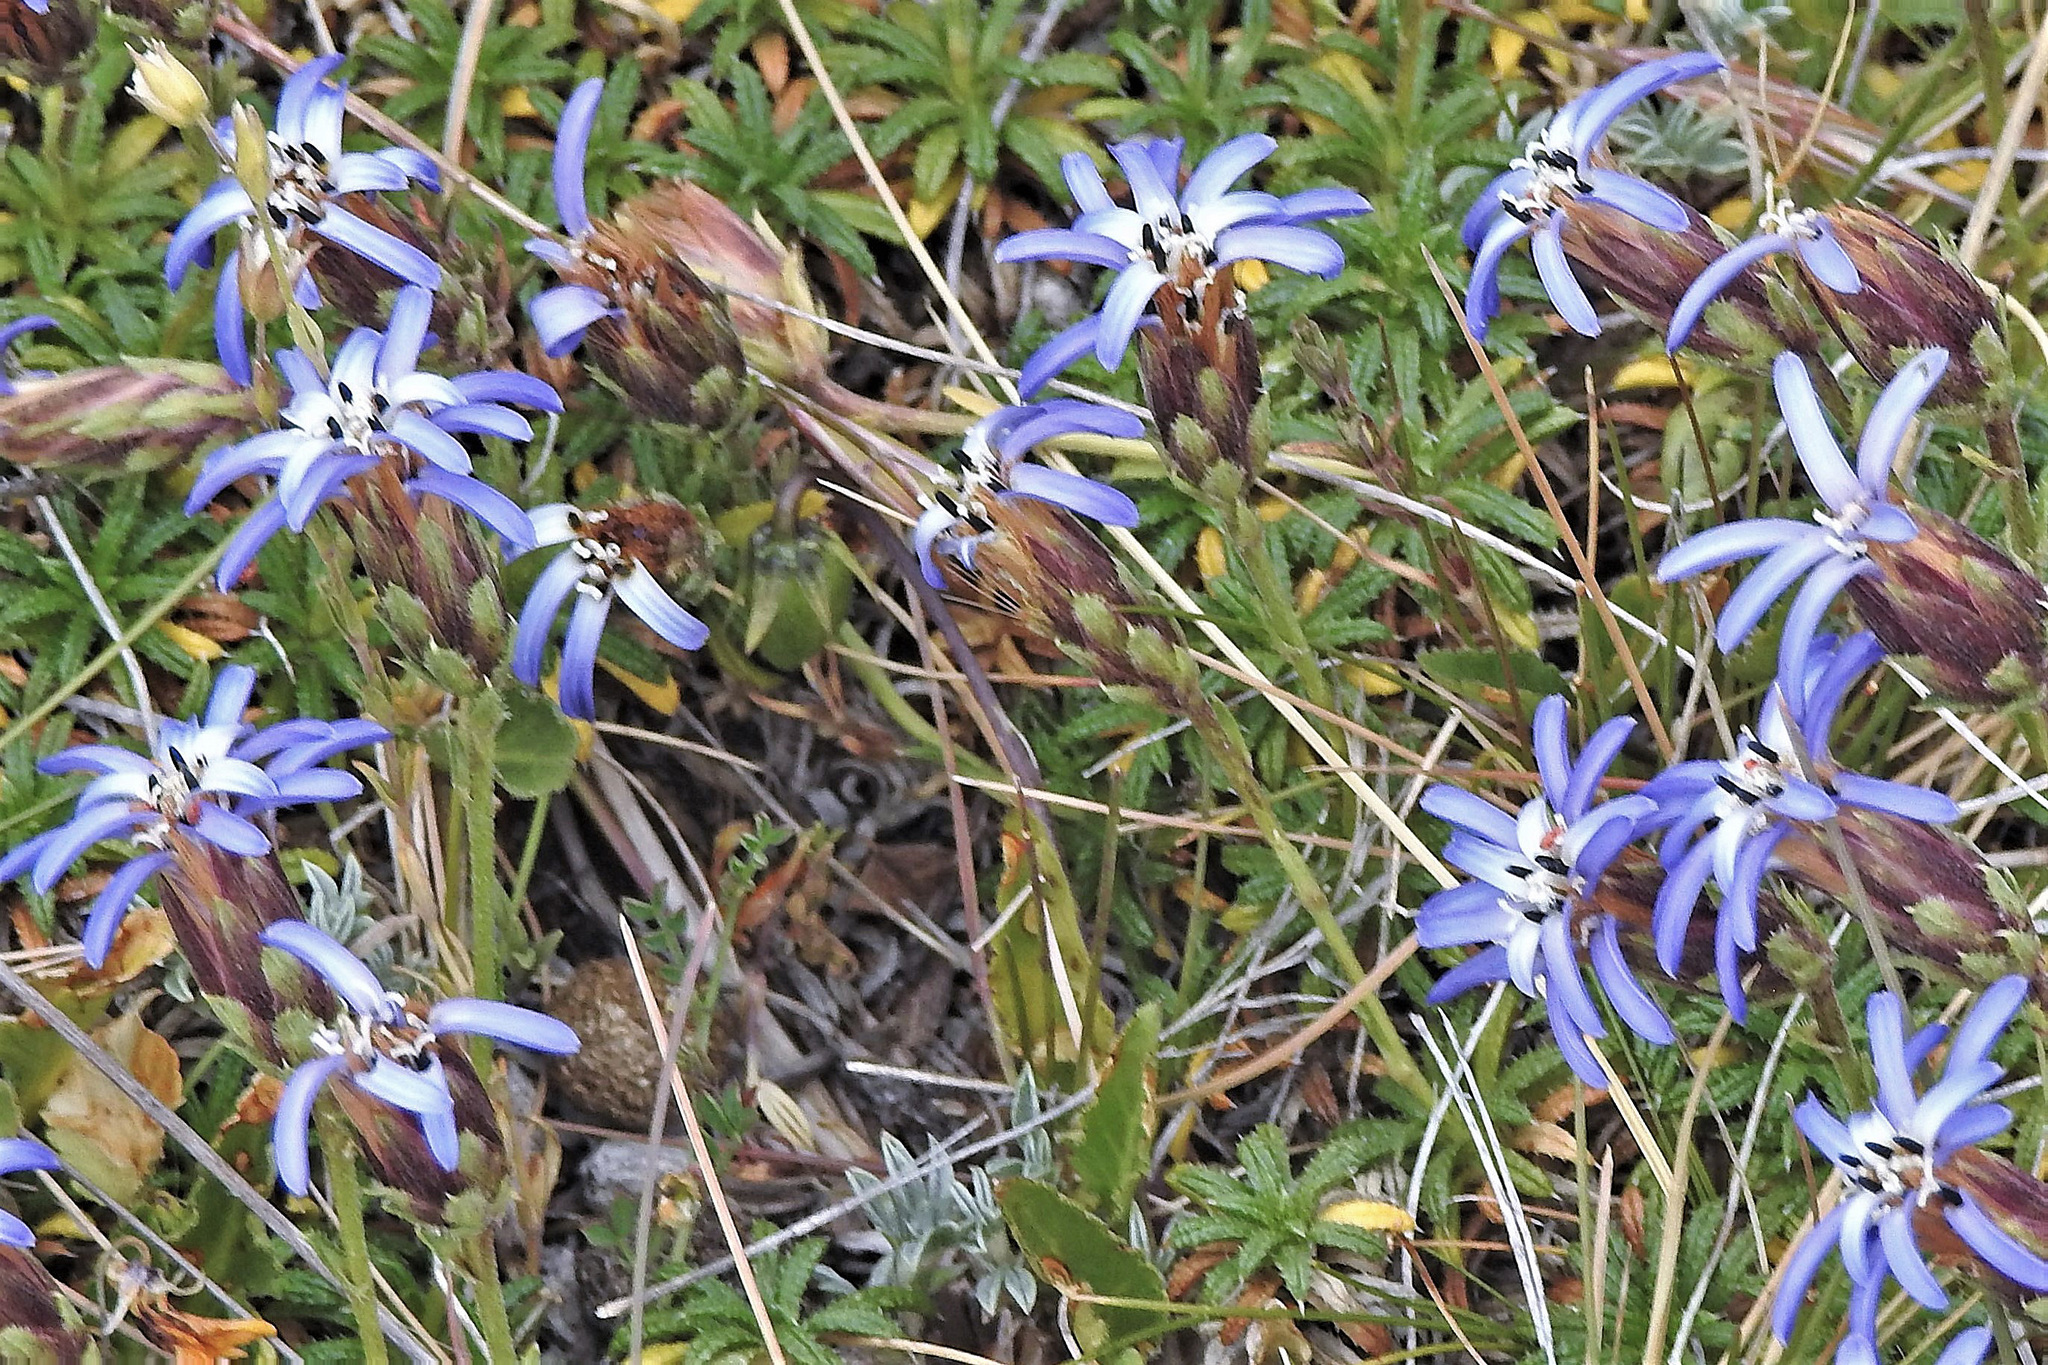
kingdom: Plantae
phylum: Tracheophyta
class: Magnoliopsida
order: Asterales
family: Asteraceae
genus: Perezia
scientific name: Perezia recurvata
